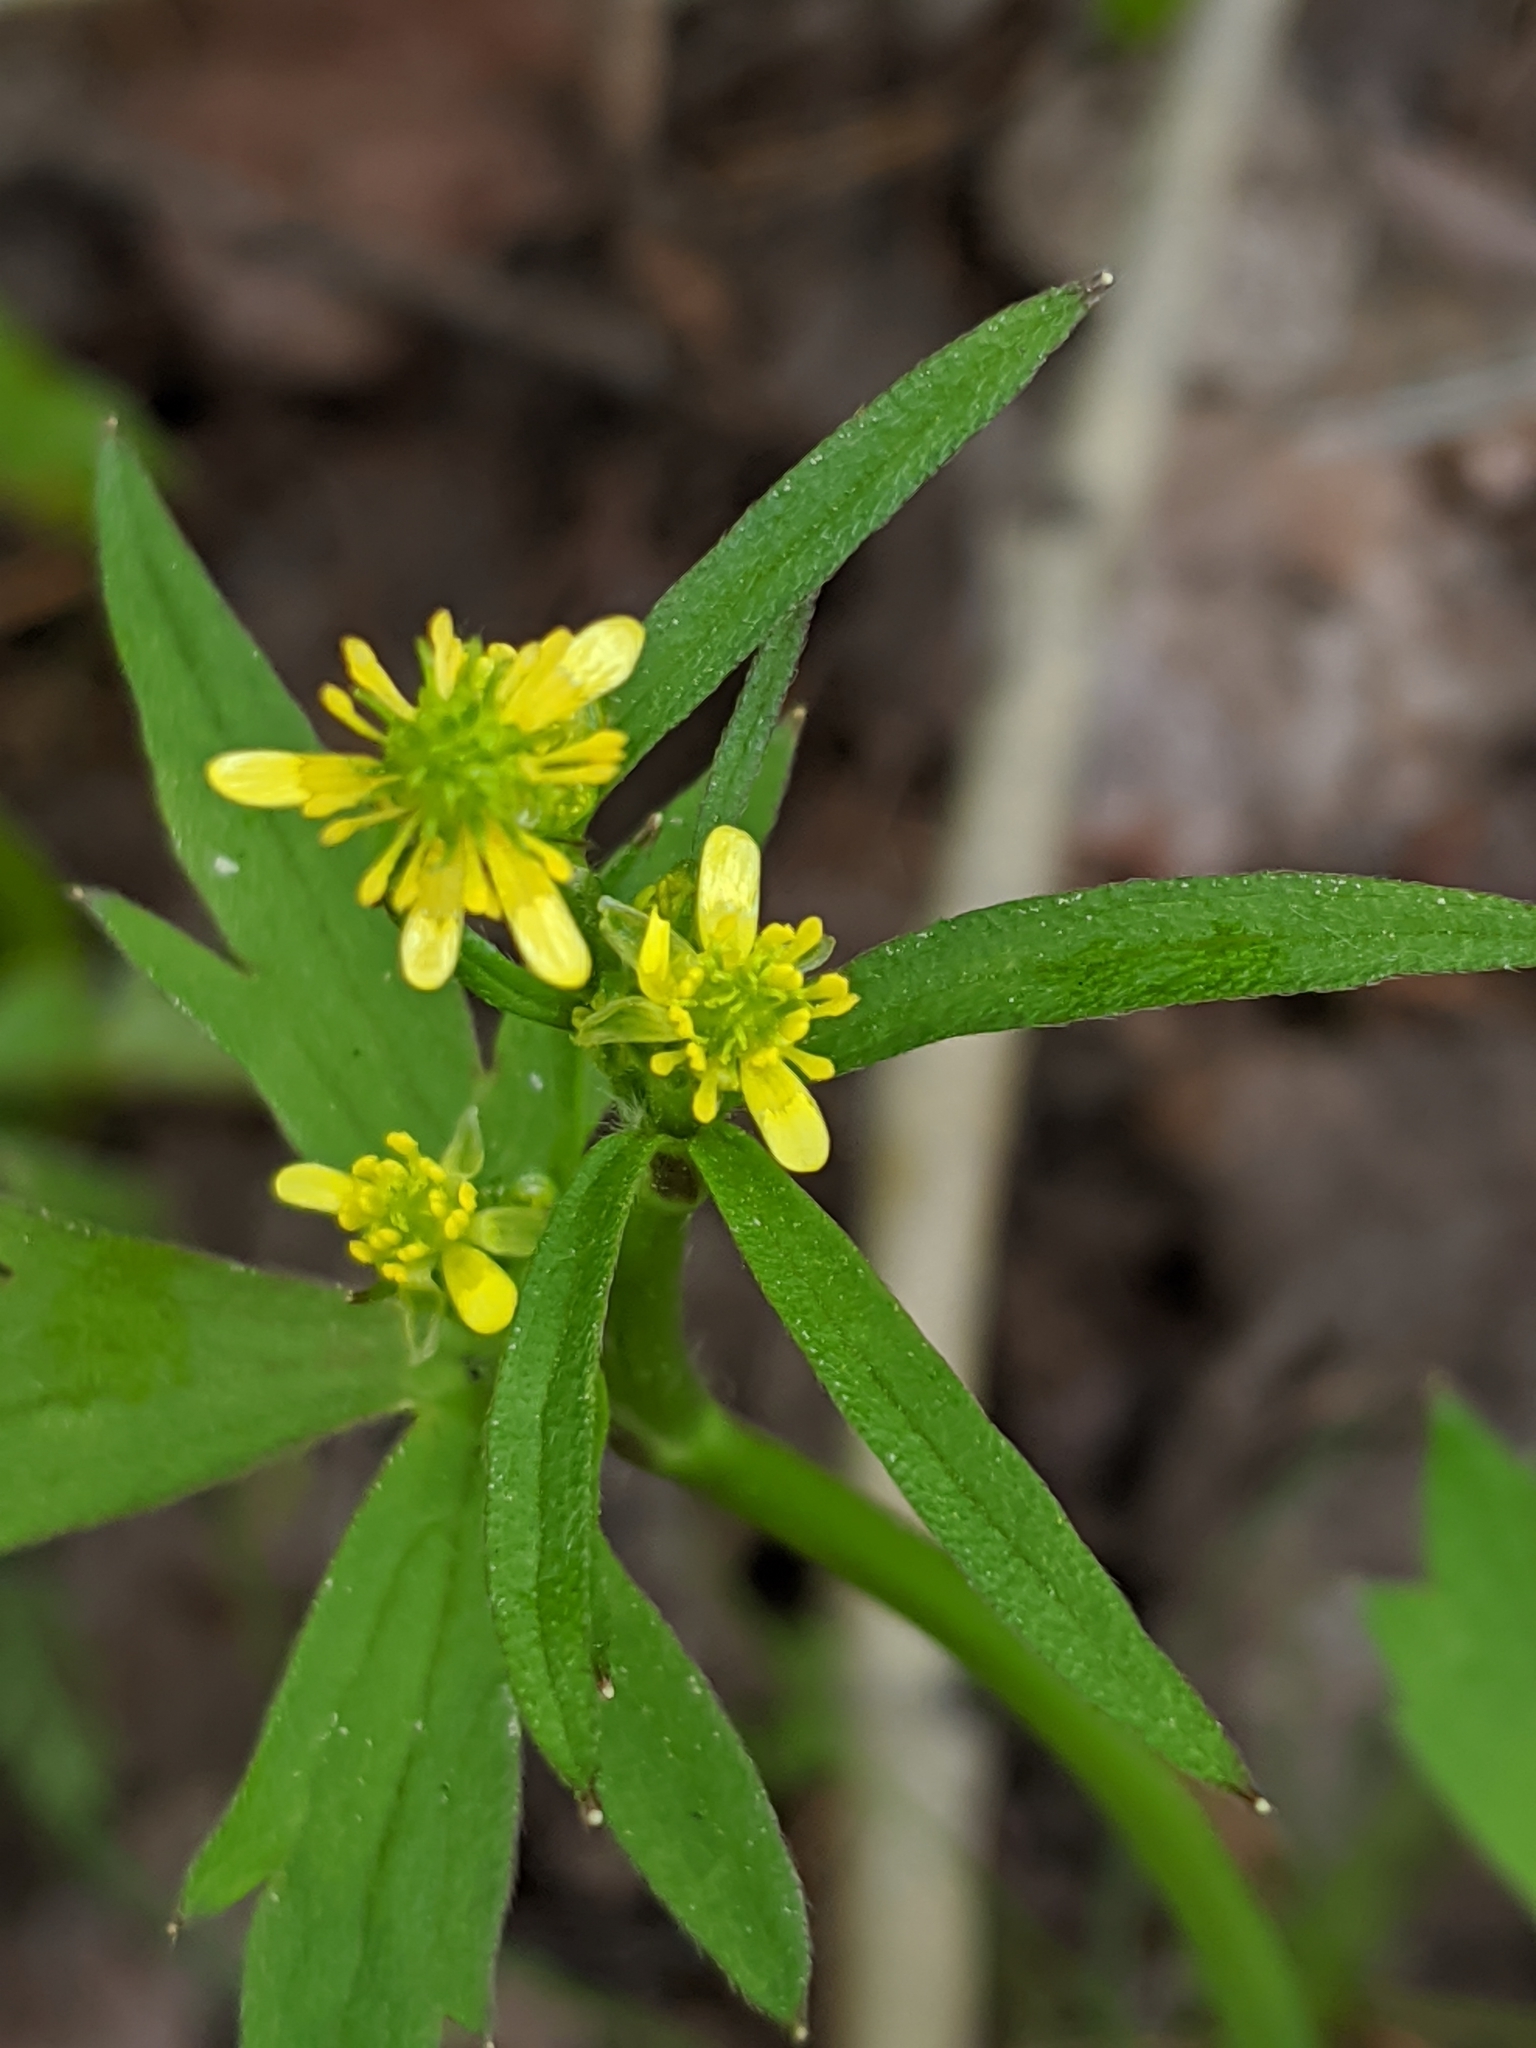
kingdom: Plantae
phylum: Tracheophyta
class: Magnoliopsida
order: Ranunculales
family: Ranunculaceae
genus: Ranunculus
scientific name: Ranunculus uncinatus
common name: Little buttercup
